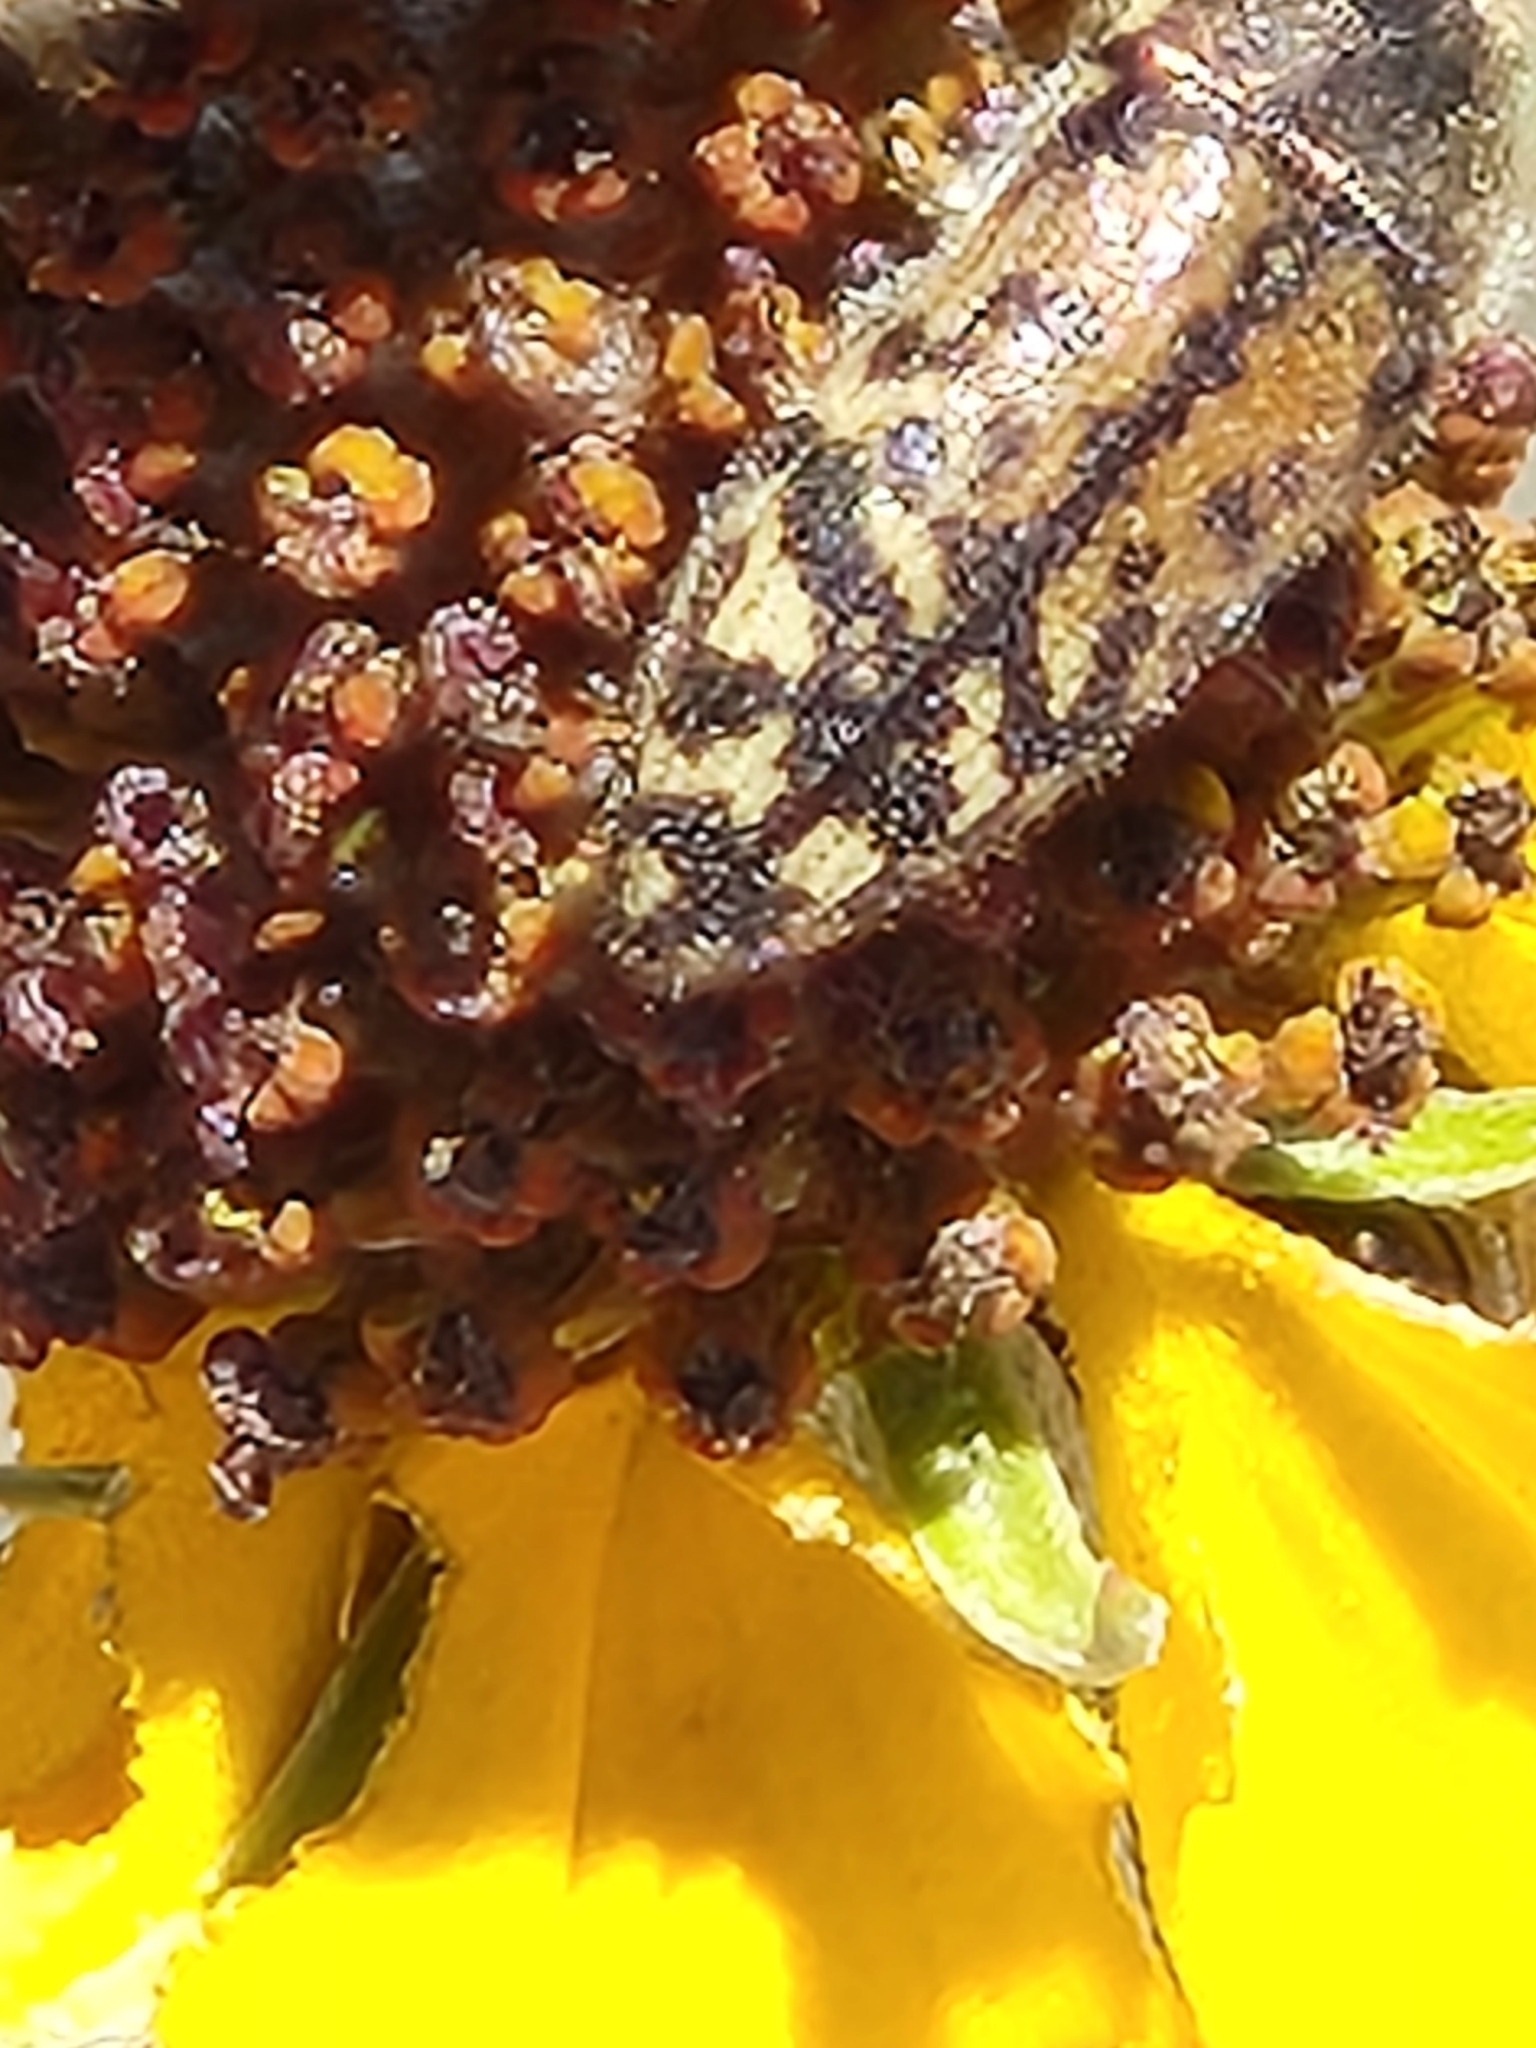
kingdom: Animalia
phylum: Arthropoda
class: Insecta
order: Coleoptera
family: Buprestidae
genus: Acmaeodera
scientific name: Acmaeodera mixta
